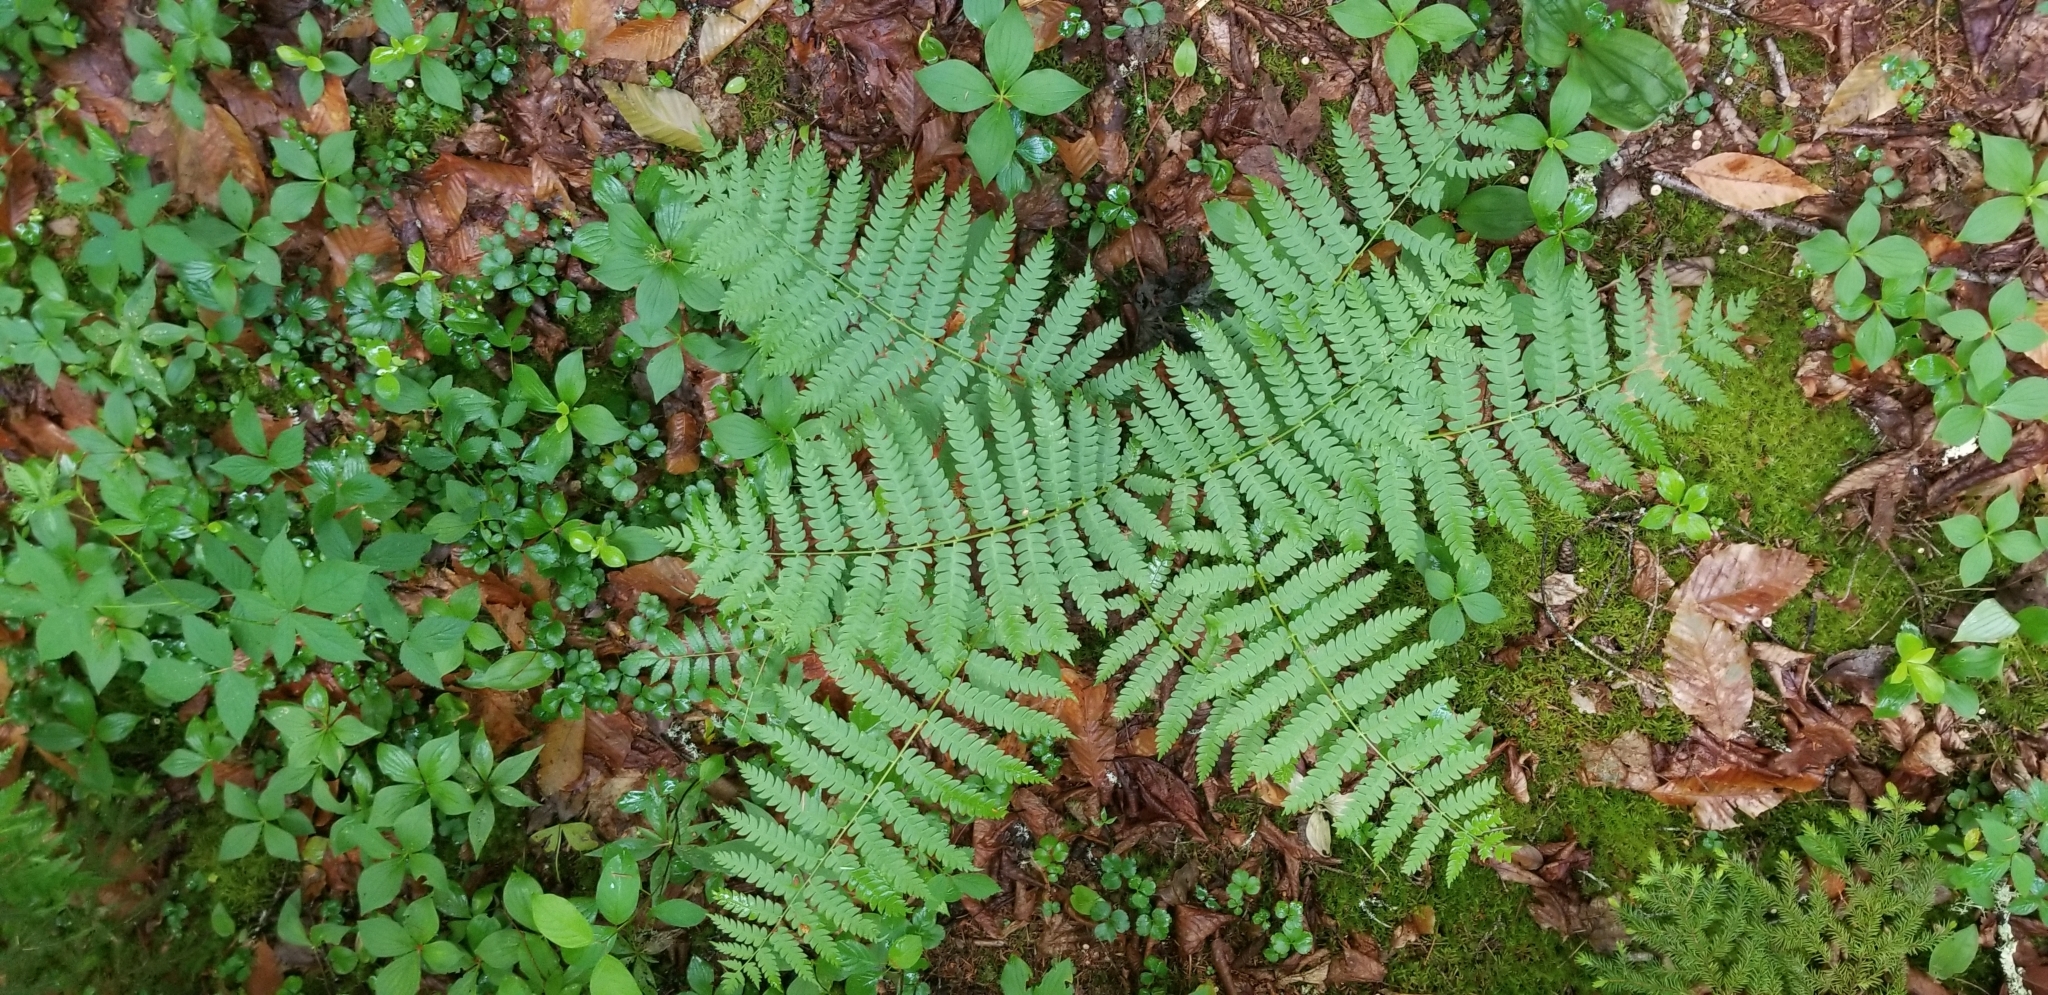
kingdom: Plantae
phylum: Tracheophyta
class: Polypodiopsida
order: Osmundales
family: Osmundaceae
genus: Claytosmunda
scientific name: Claytosmunda claytoniana
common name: Clayton's fern
